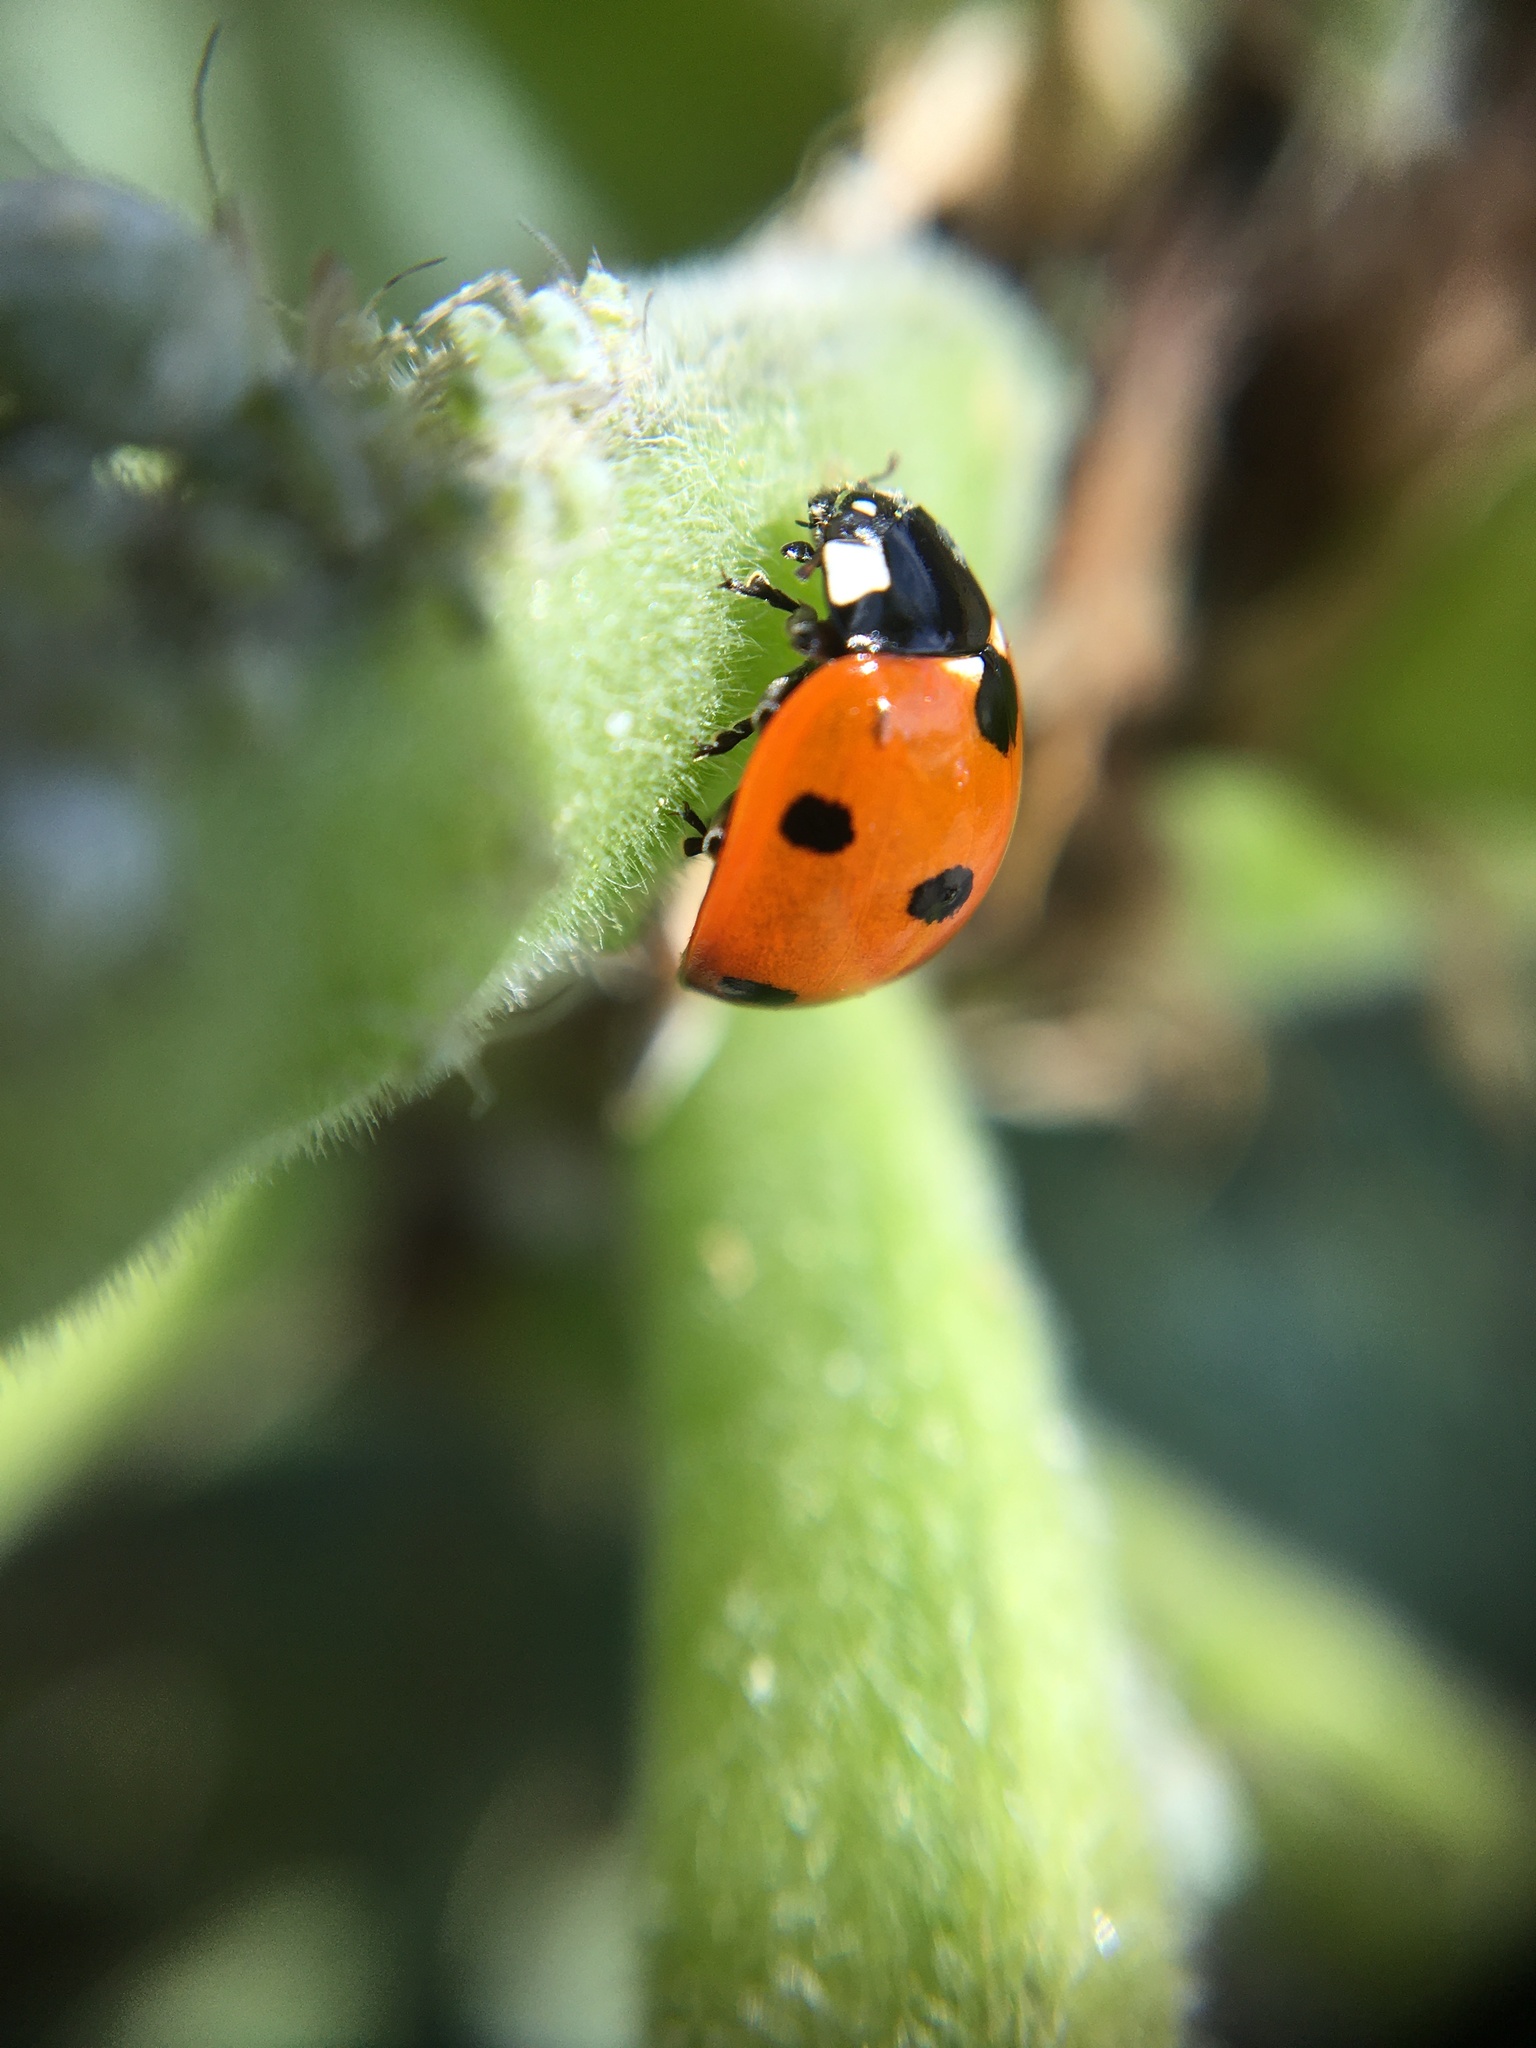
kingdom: Animalia
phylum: Arthropoda
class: Insecta
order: Coleoptera
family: Coccinellidae
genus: Coccinella
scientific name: Coccinella septempunctata
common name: Sevenspotted lady beetle
